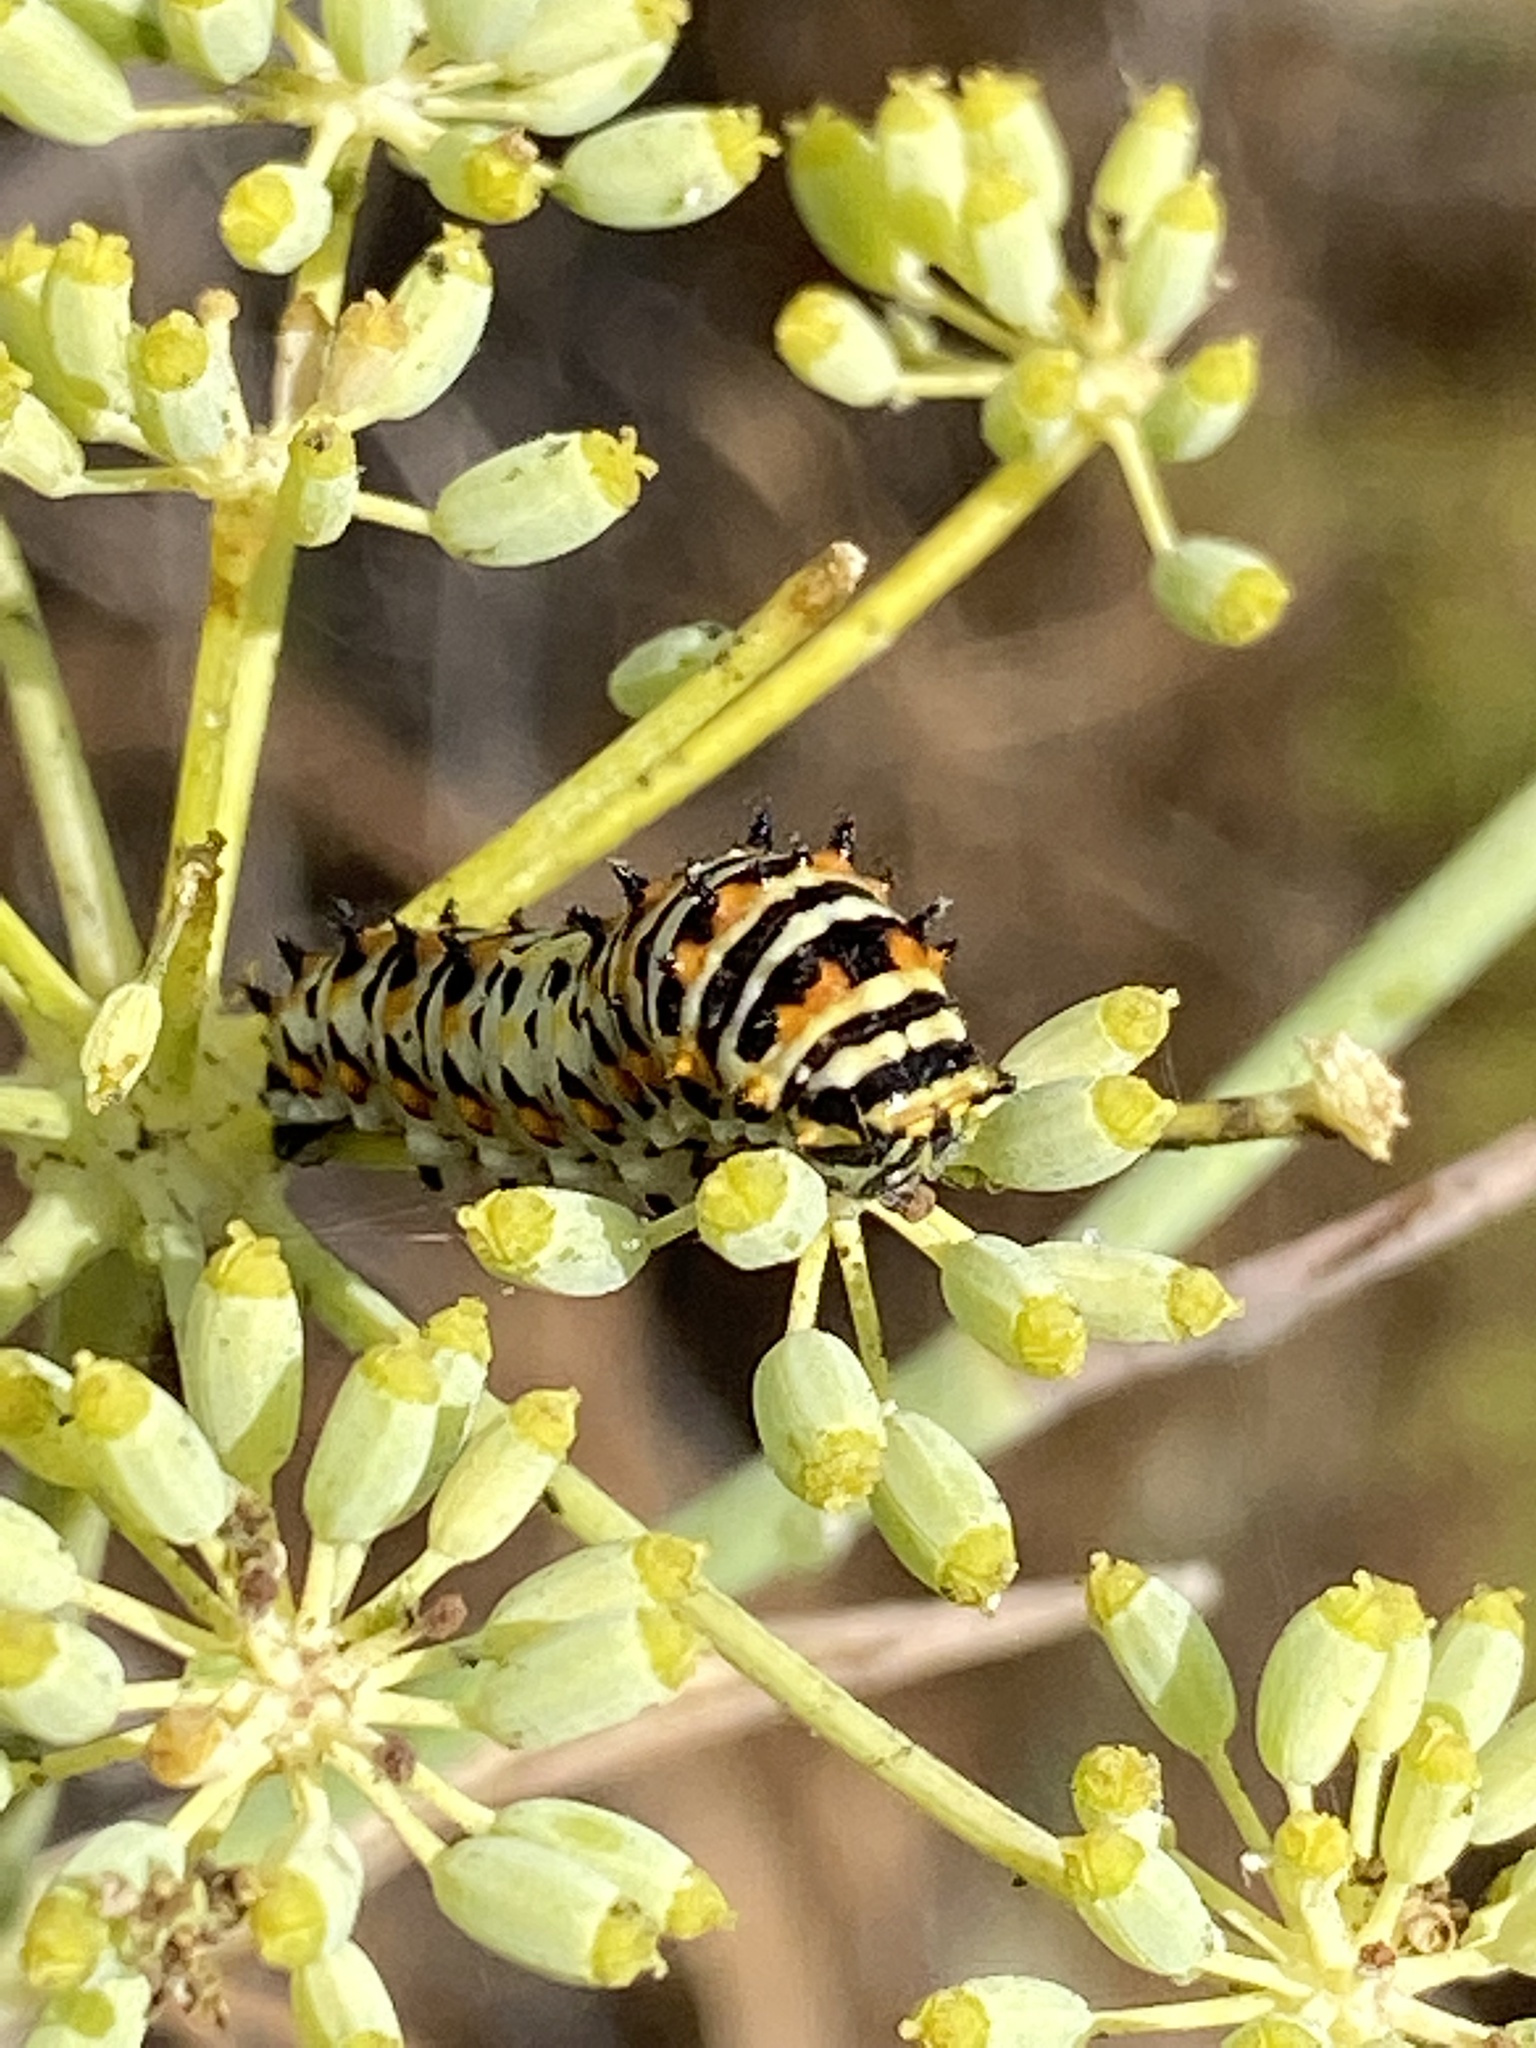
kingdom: Animalia
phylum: Arthropoda
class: Insecta
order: Lepidoptera
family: Papilionidae
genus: Papilio
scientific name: Papilio zelicaon
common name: Anise swallowtail
